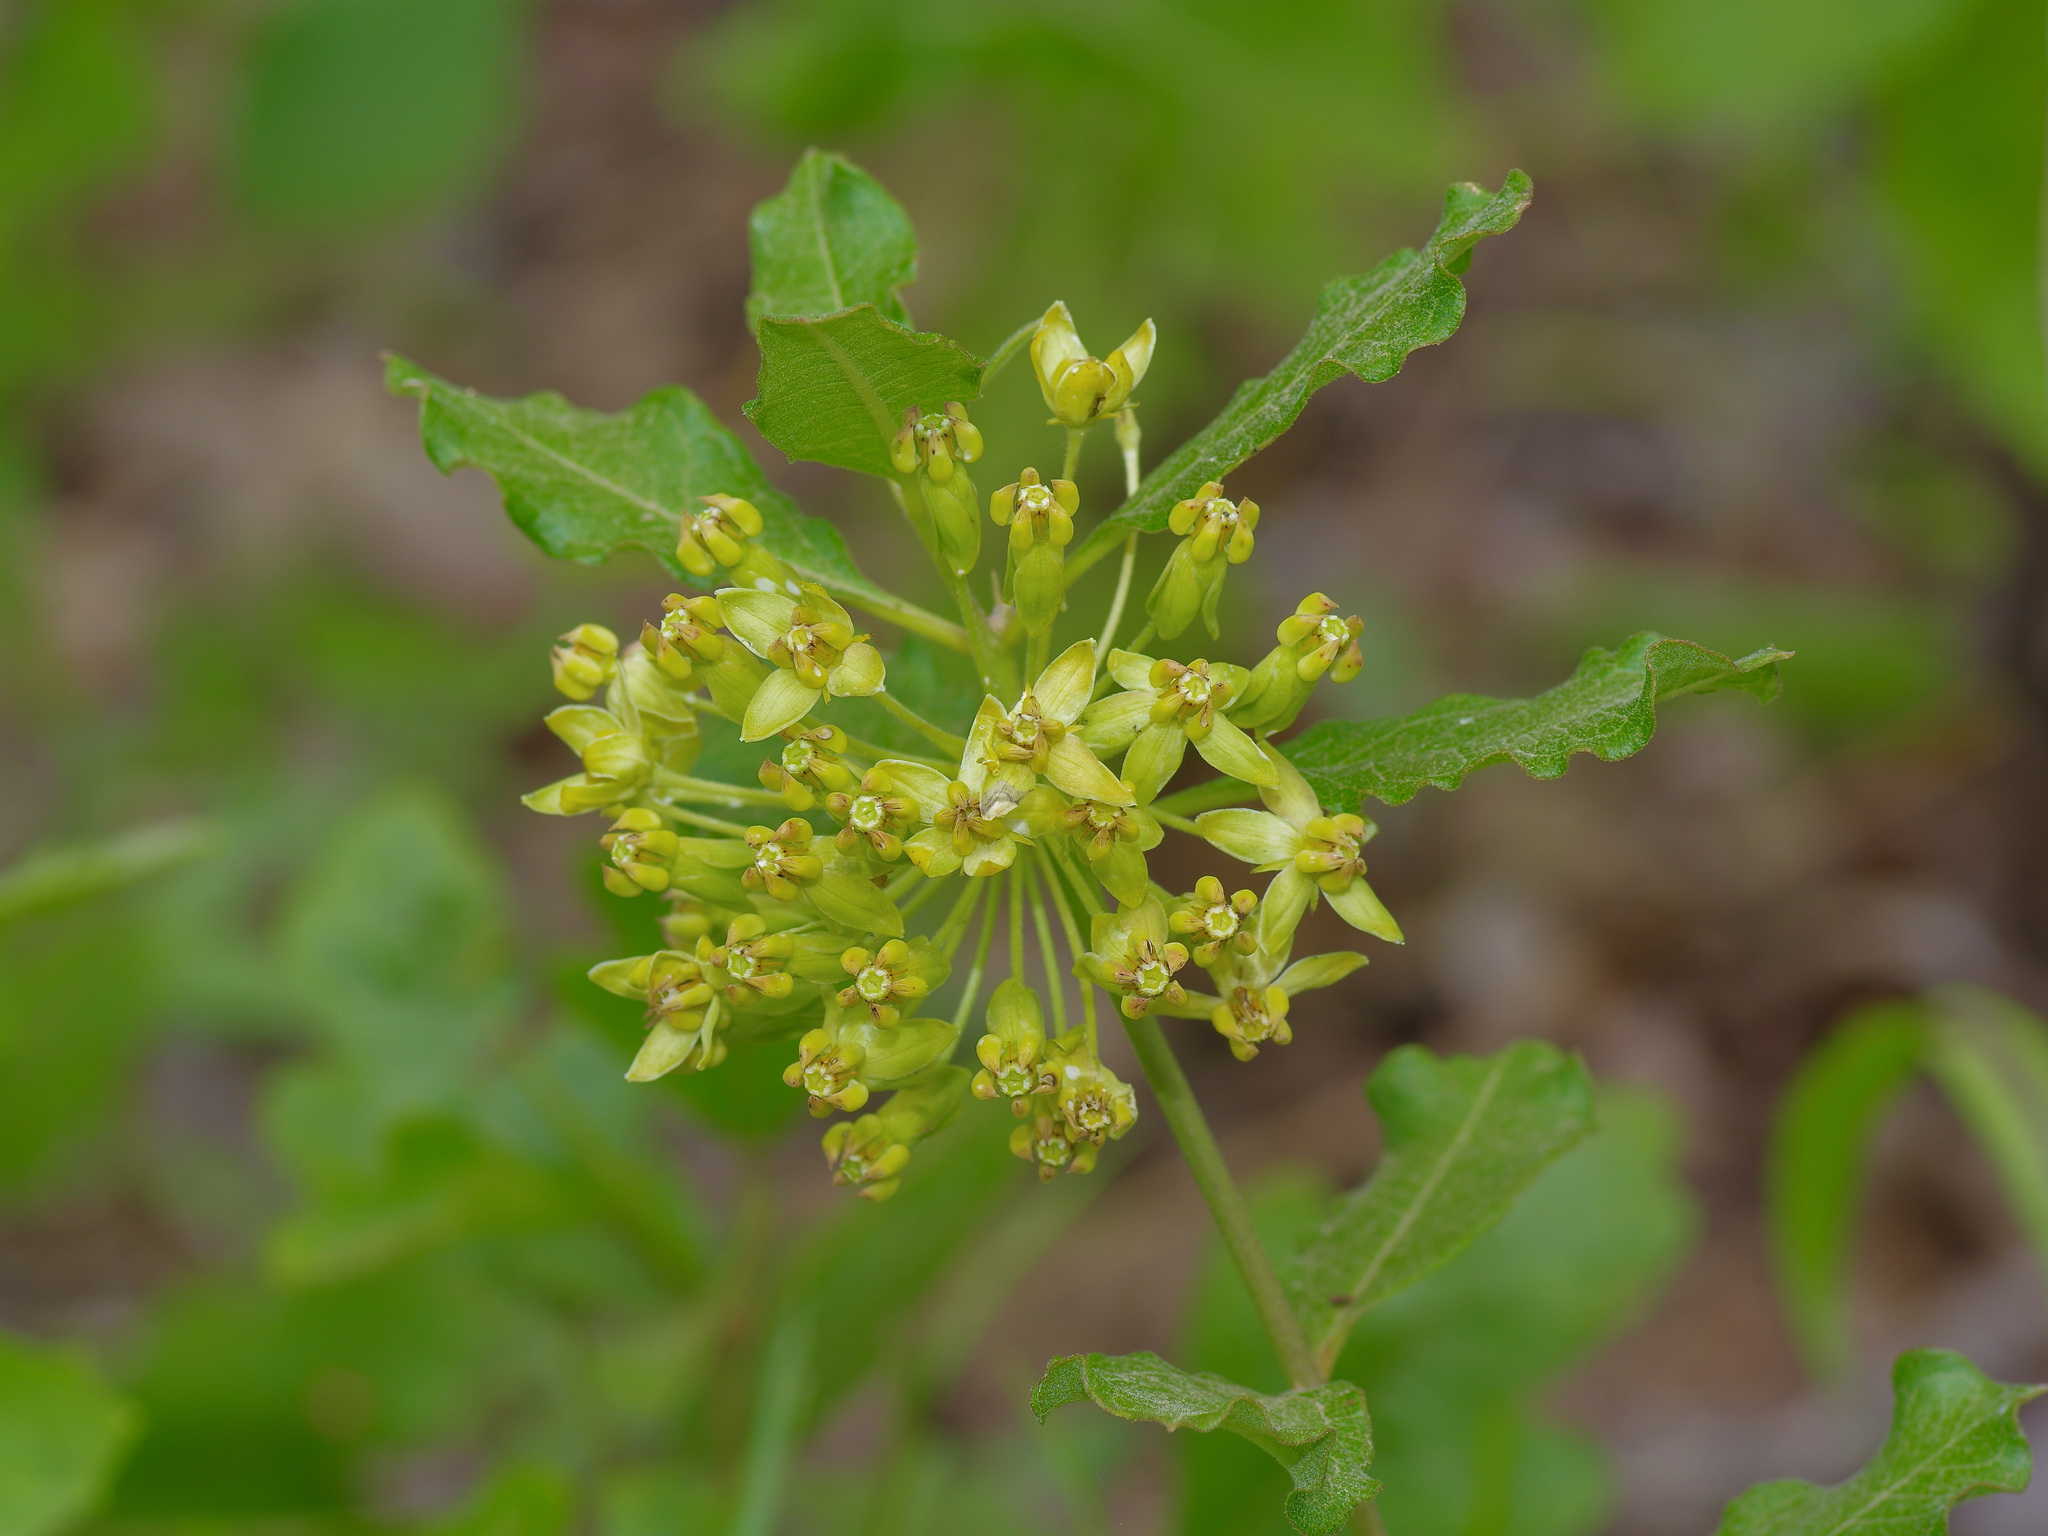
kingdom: Plantae
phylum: Tracheophyta
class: Magnoliopsida
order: Gentianales
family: Apocynaceae
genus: Asclepias
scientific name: Asclepias tomentosa
